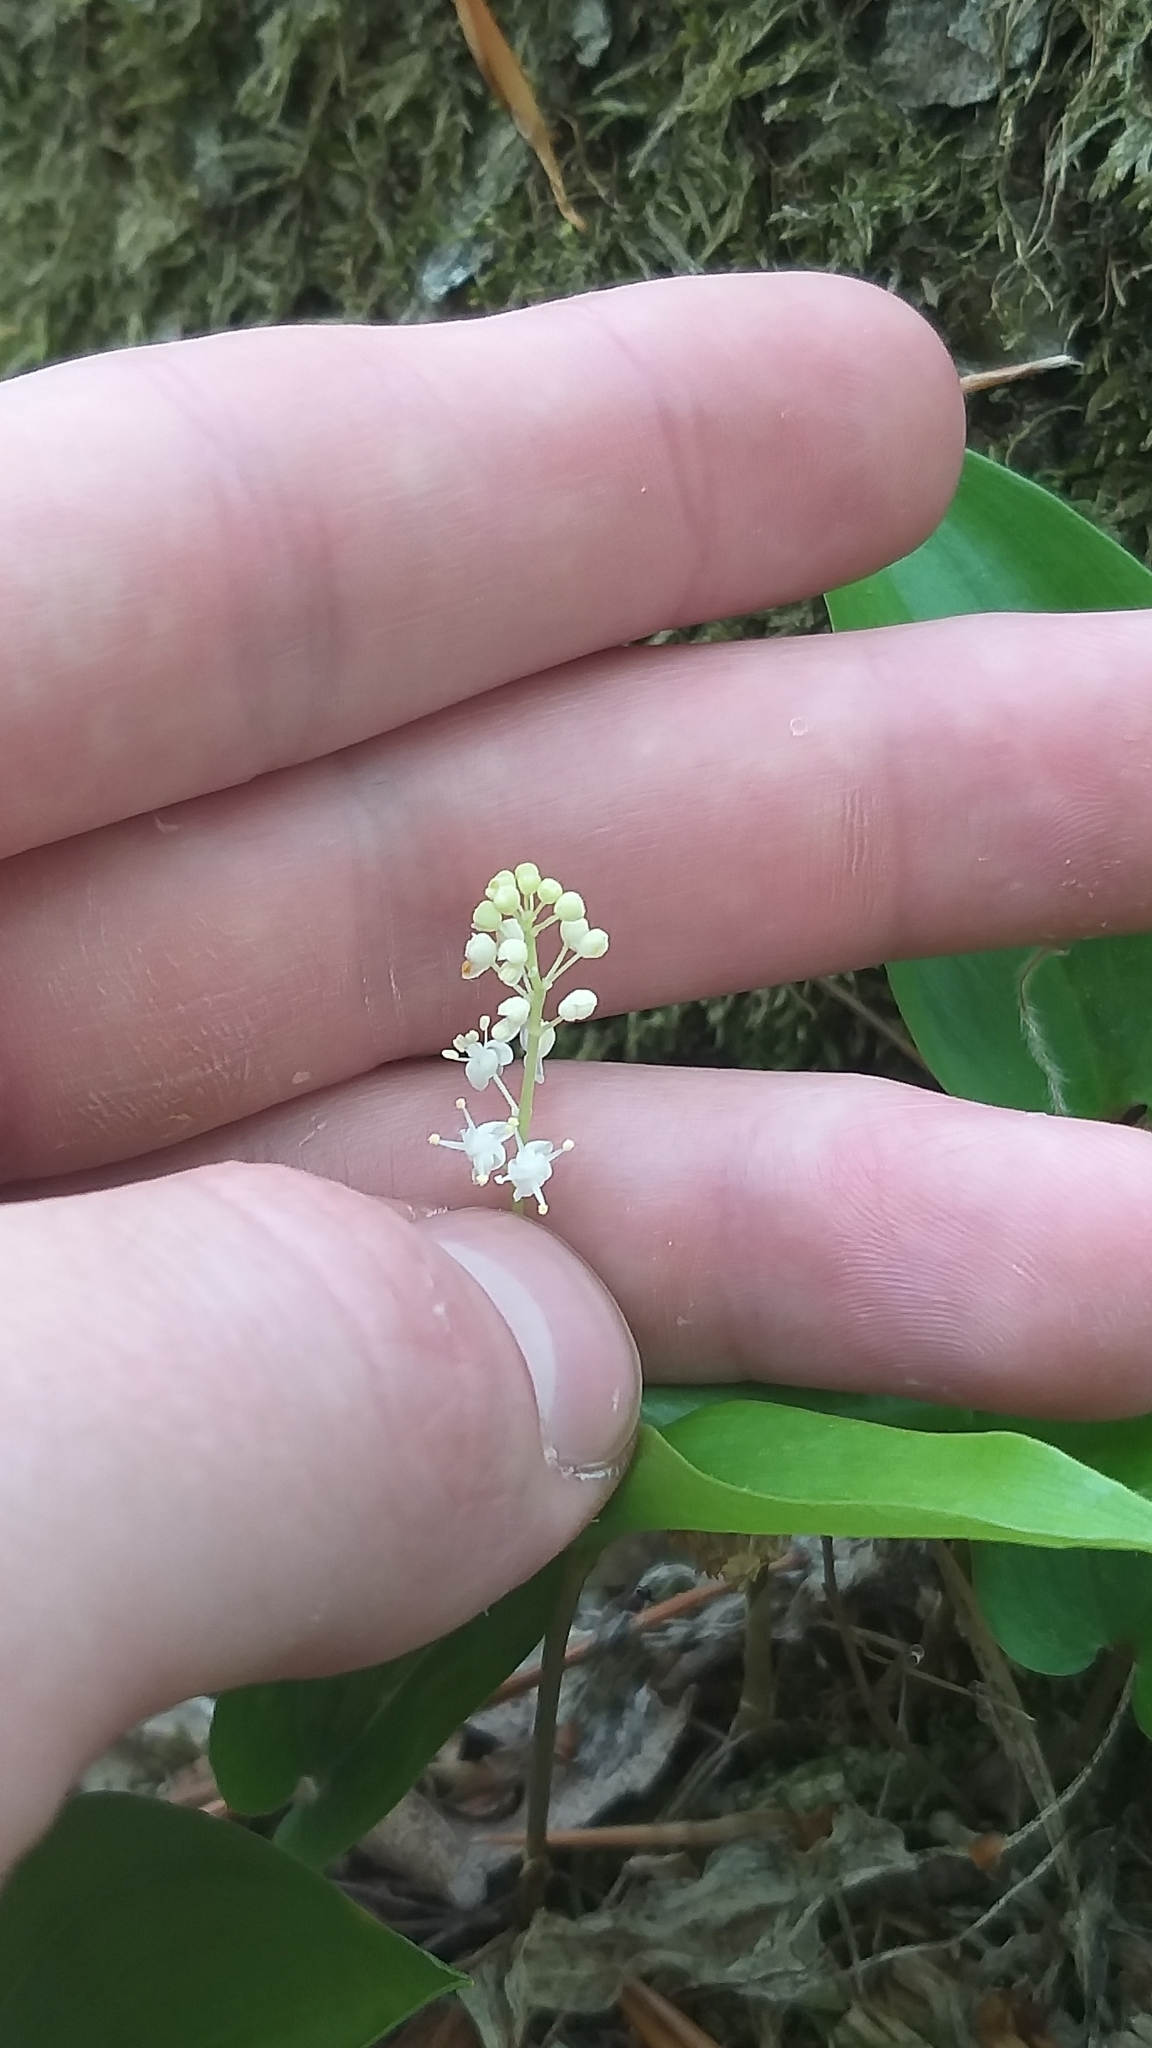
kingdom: Plantae
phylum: Tracheophyta
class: Liliopsida
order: Asparagales
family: Asparagaceae
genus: Maianthemum
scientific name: Maianthemum canadense
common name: False lily-of-the-valley
